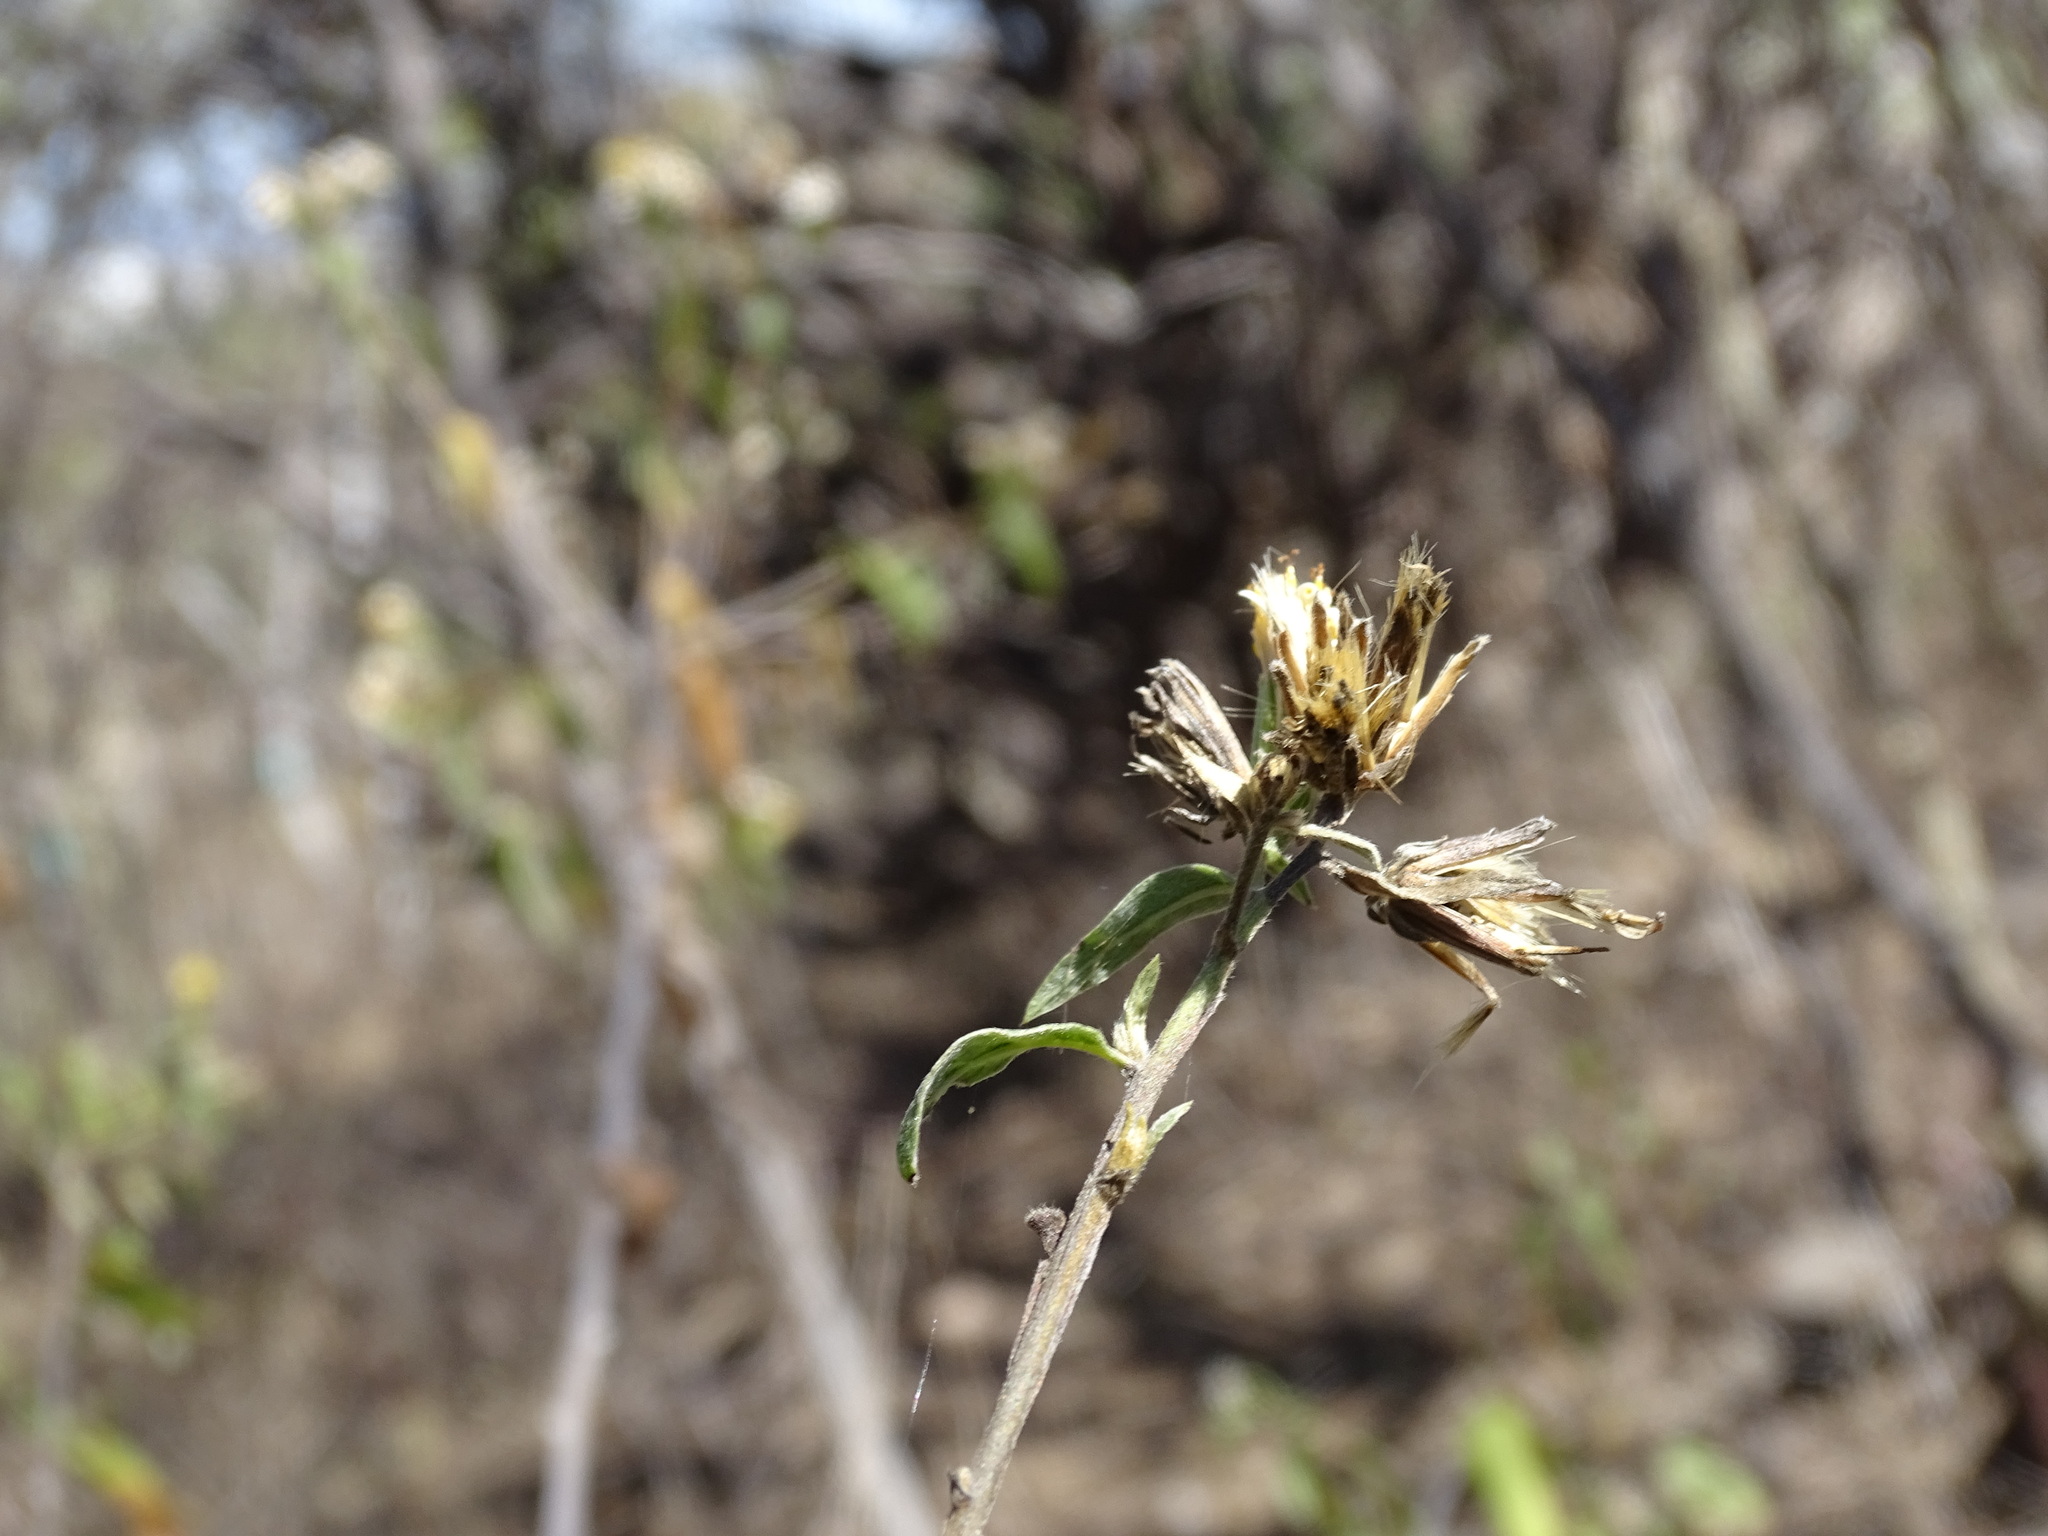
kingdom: Plantae
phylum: Tracheophyta
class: Magnoliopsida
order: Asterales
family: Asteraceae
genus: Trixis
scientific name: Trixis inula
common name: Tropical threefold
